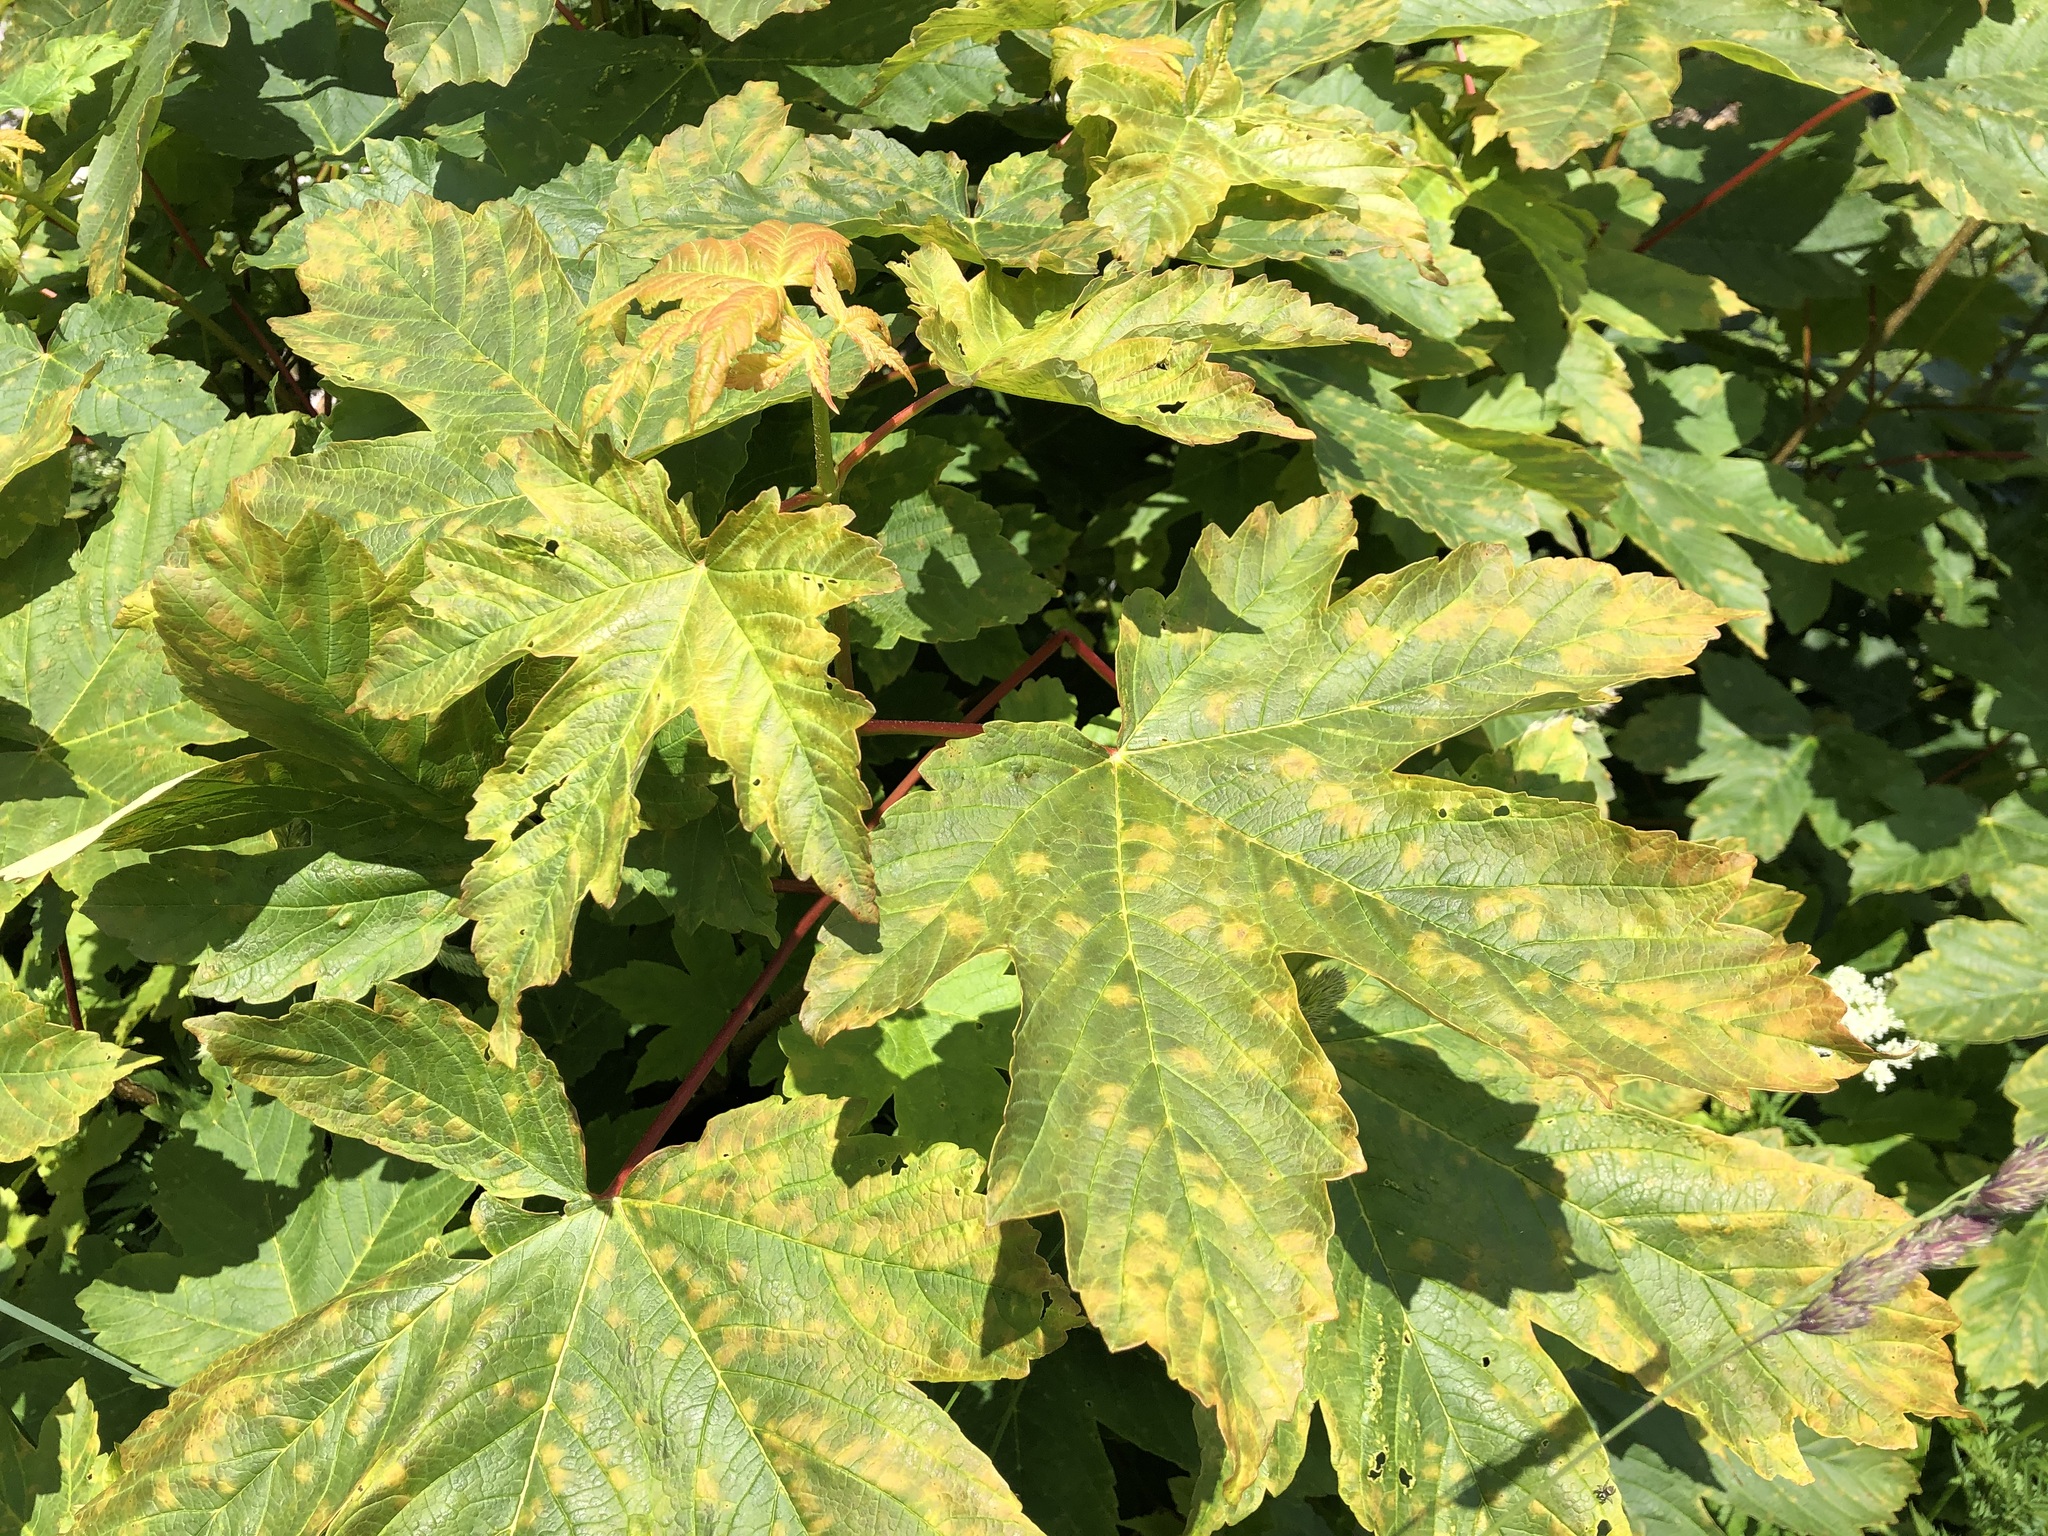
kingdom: Plantae
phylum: Tracheophyta
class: Magnoliopsida
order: Sapindales
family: Sapindaceae
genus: Acer
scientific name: Acer pseudoplatanus
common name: Sycamore
